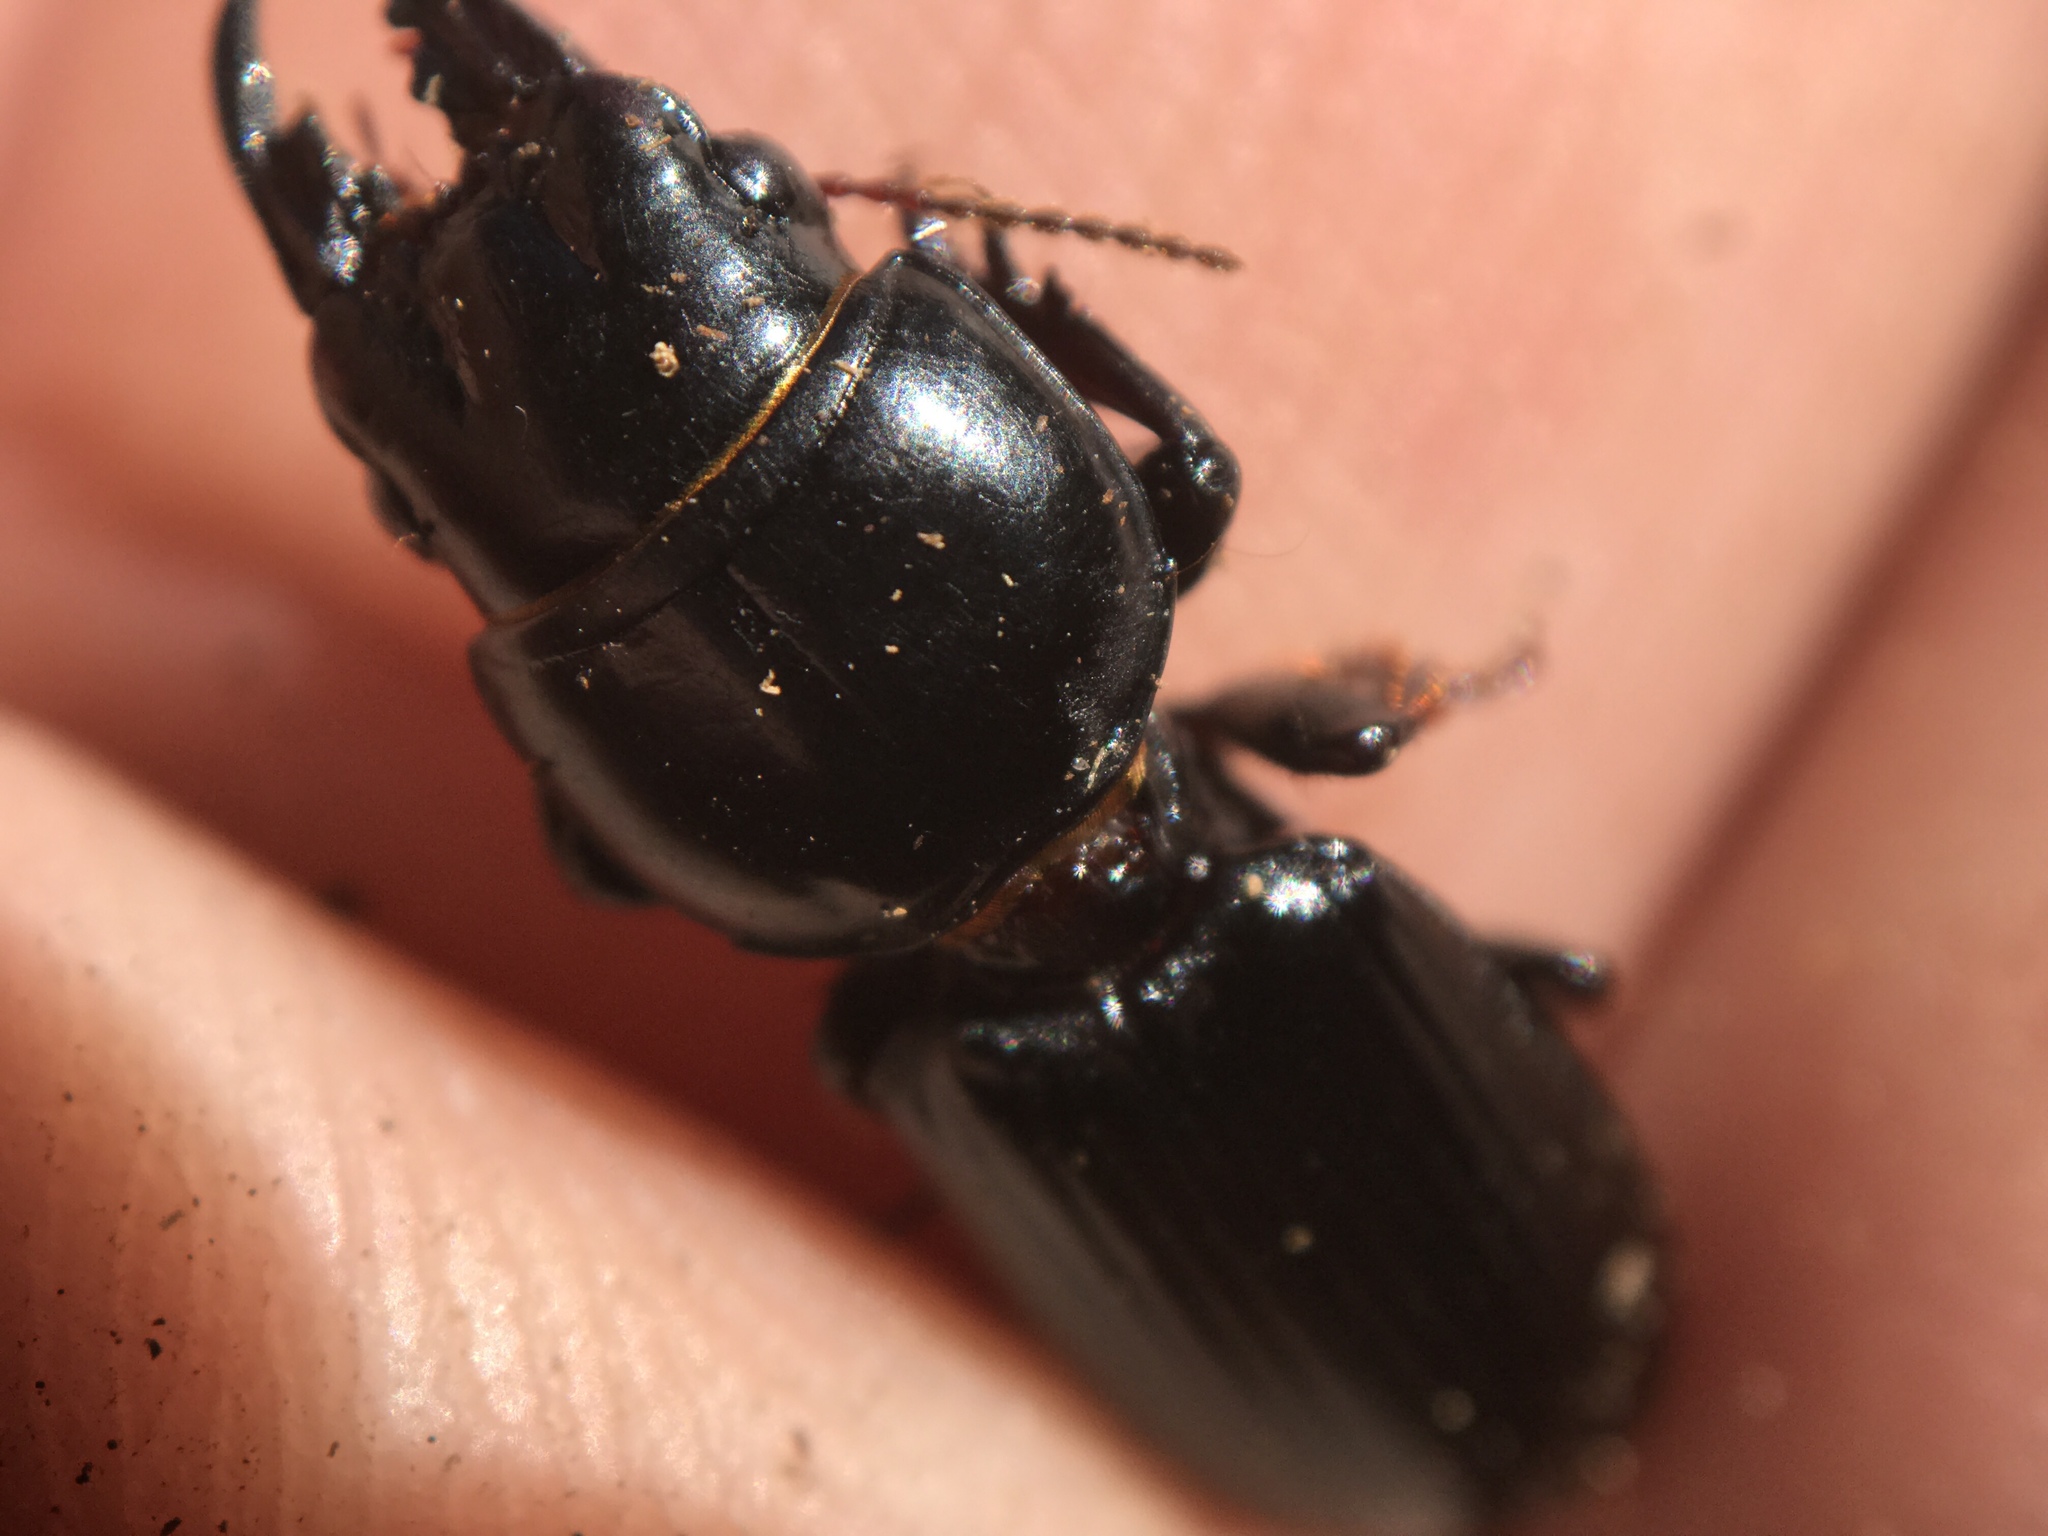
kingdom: Animalia
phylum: Arthropoda
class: Insecta
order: Coleoptera
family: Carabidae
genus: Scarites
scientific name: Scarites subterraneus
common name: Big-headed ground beetle
